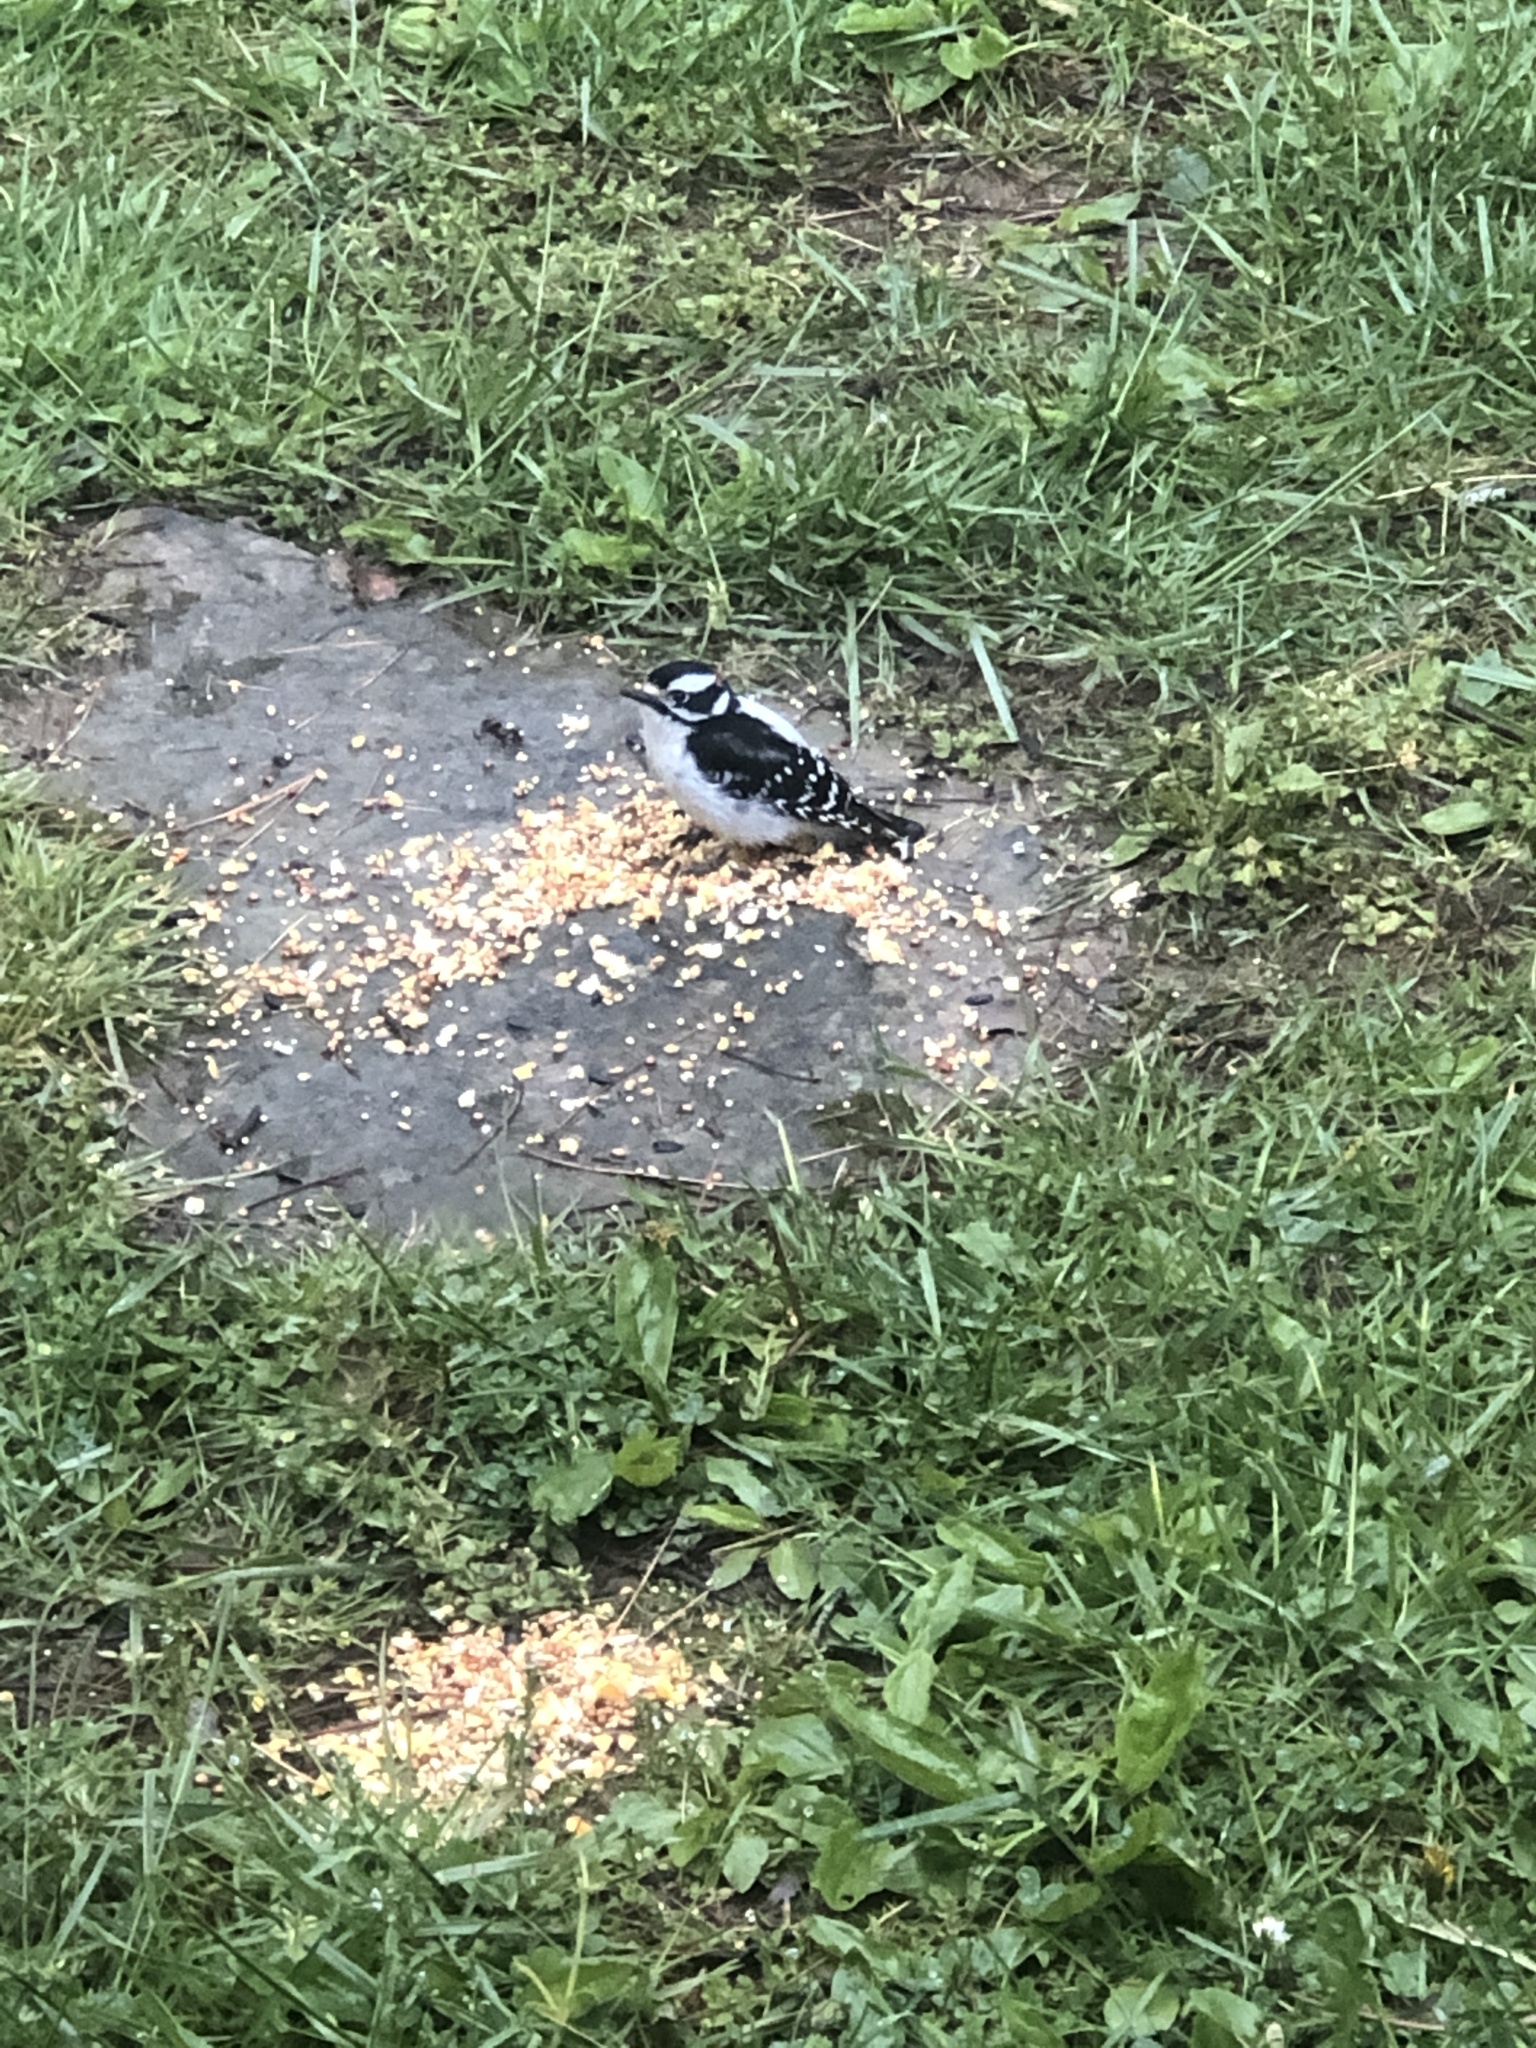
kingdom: Animalia
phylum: Chordata
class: Aves
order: Piciformes
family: Picidae
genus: Dryobates
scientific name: Dryobates pubescens
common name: Downy woodpecker
